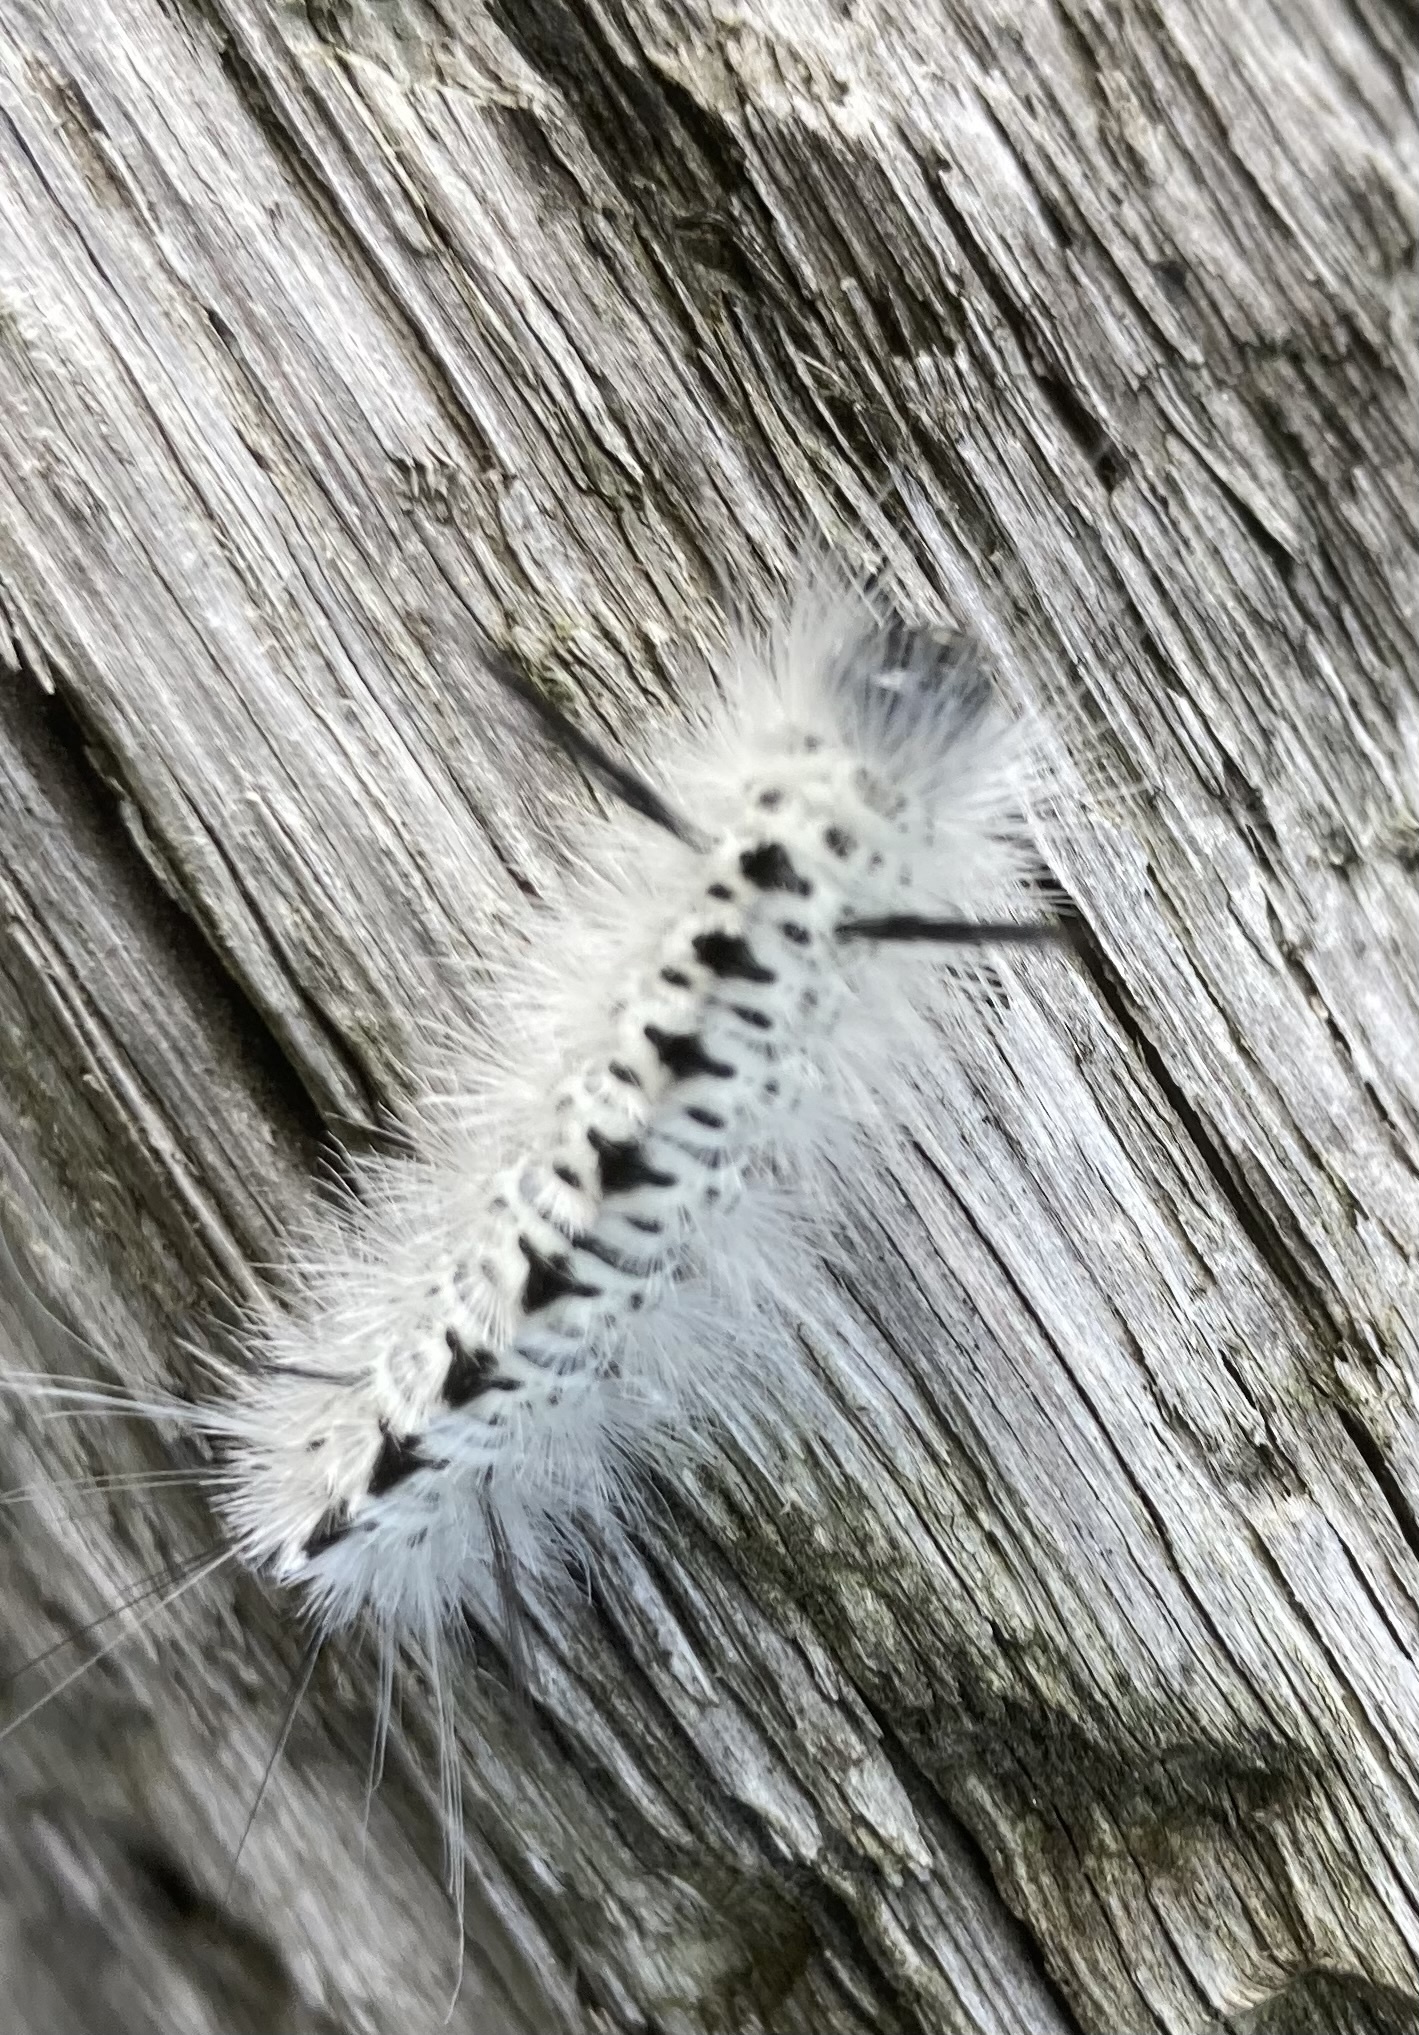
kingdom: Animalia
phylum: Arthropoda
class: Insecta
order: Lepidoptera
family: Erebidae
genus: Lophocampa
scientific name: Lophocampa caryae
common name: Hickory tussock moth
